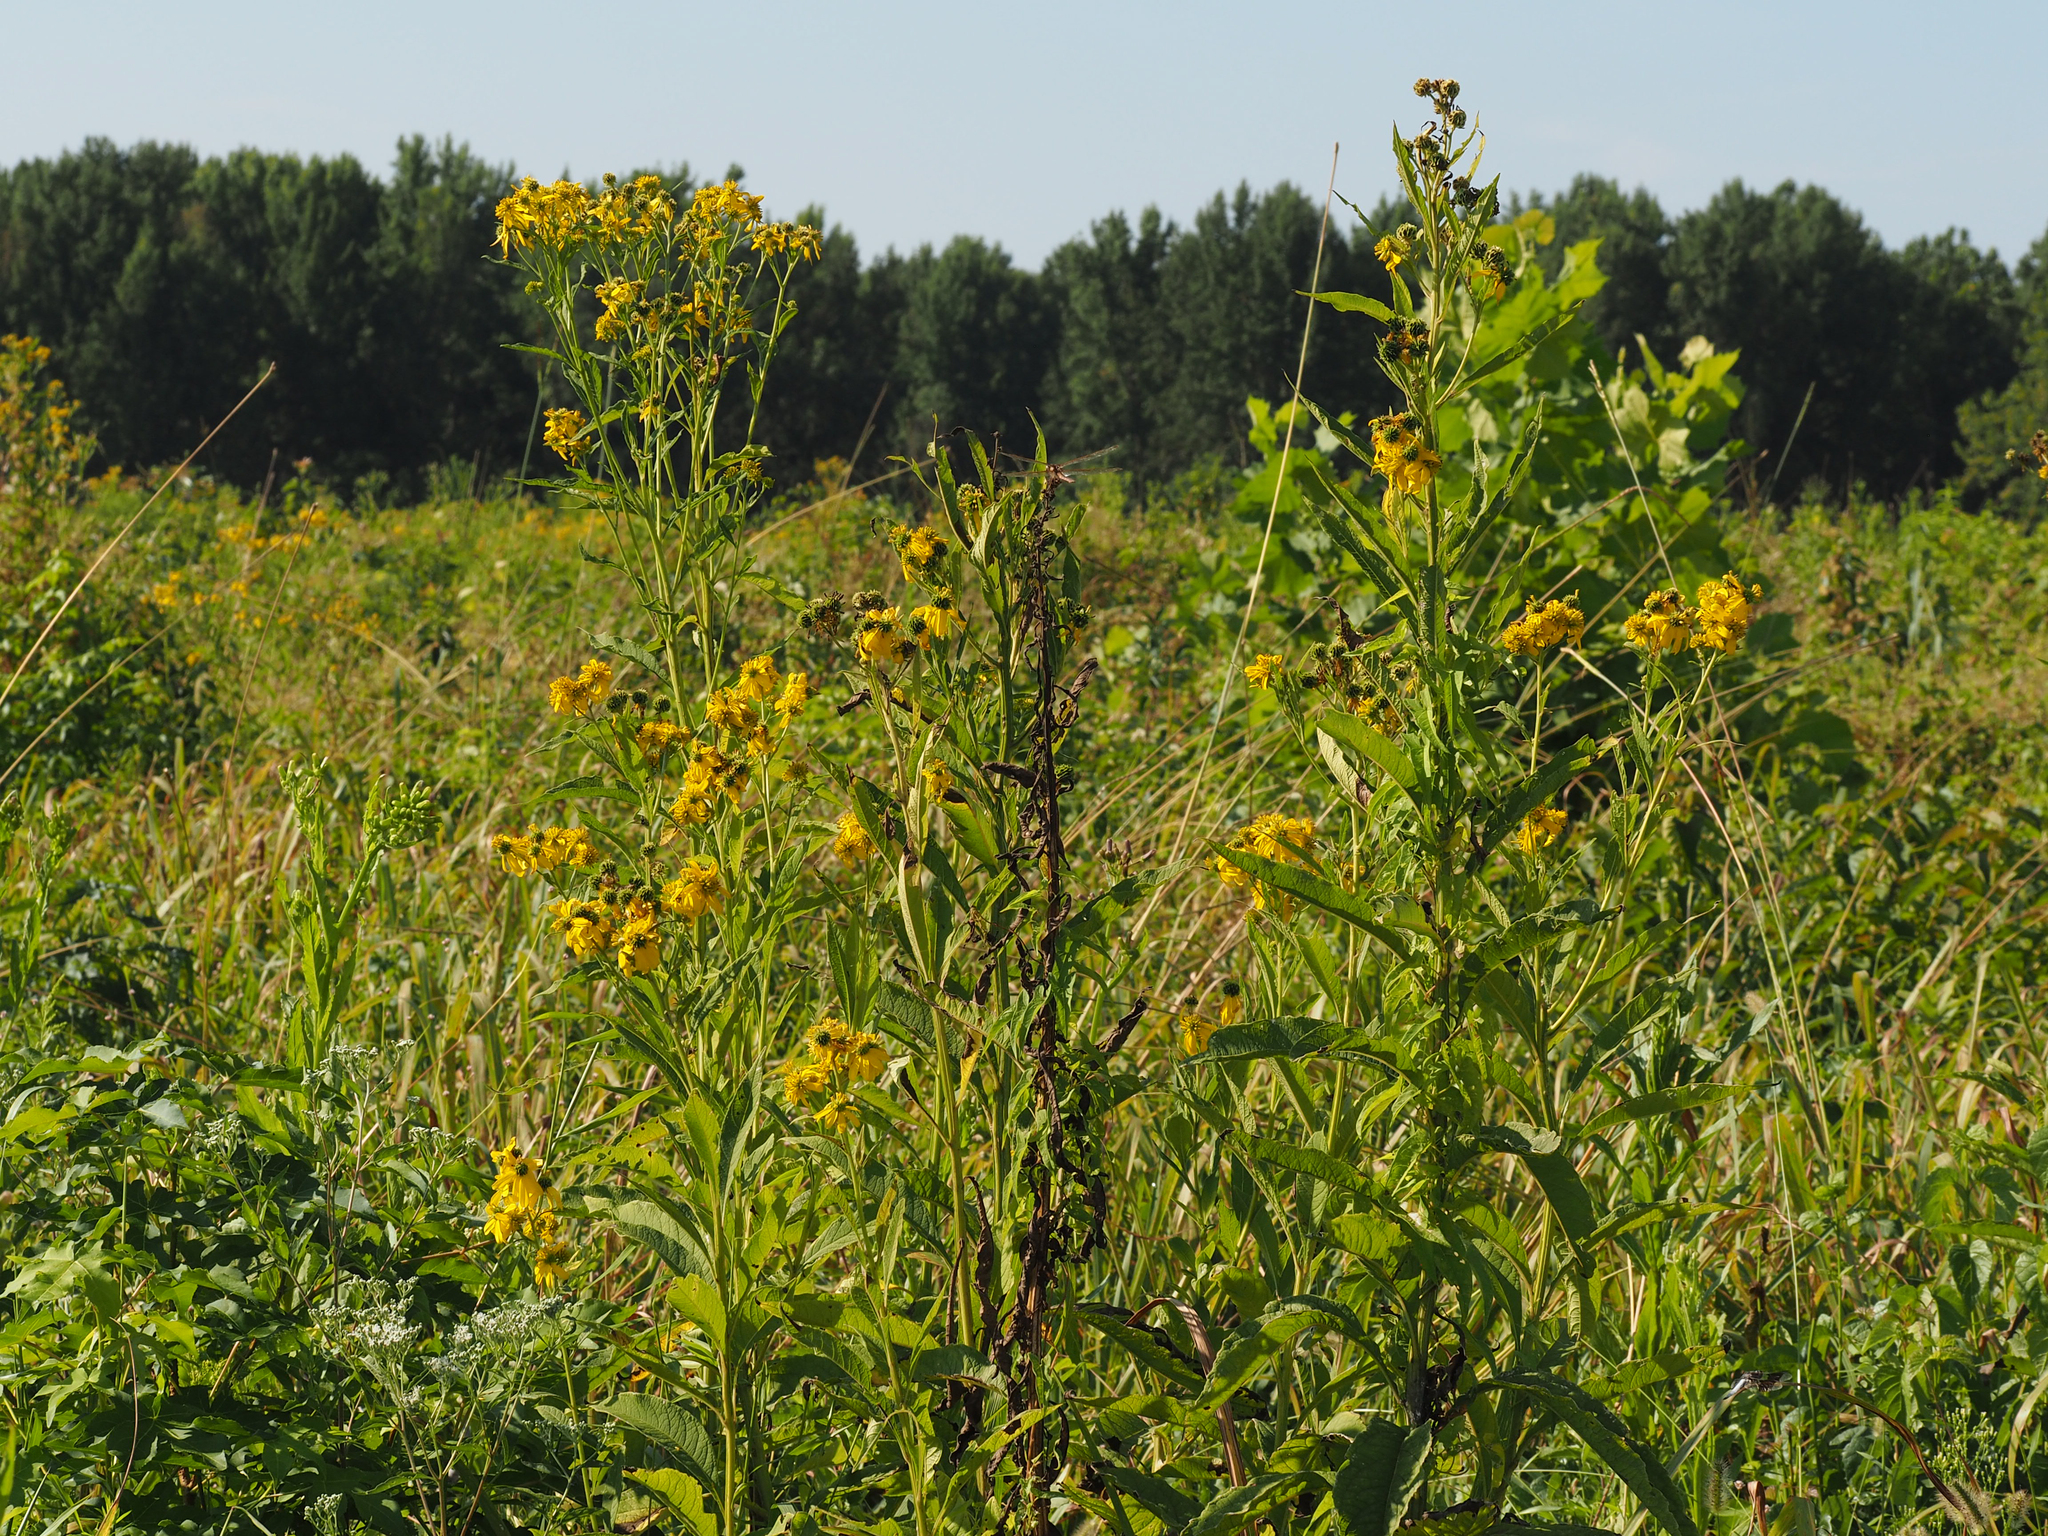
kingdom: Plantae
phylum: Tracheophyta
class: Magnoliopsida
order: Asterales
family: Asteraceae
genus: Verbesina
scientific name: Verbesina alternifolia
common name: Wingstem
